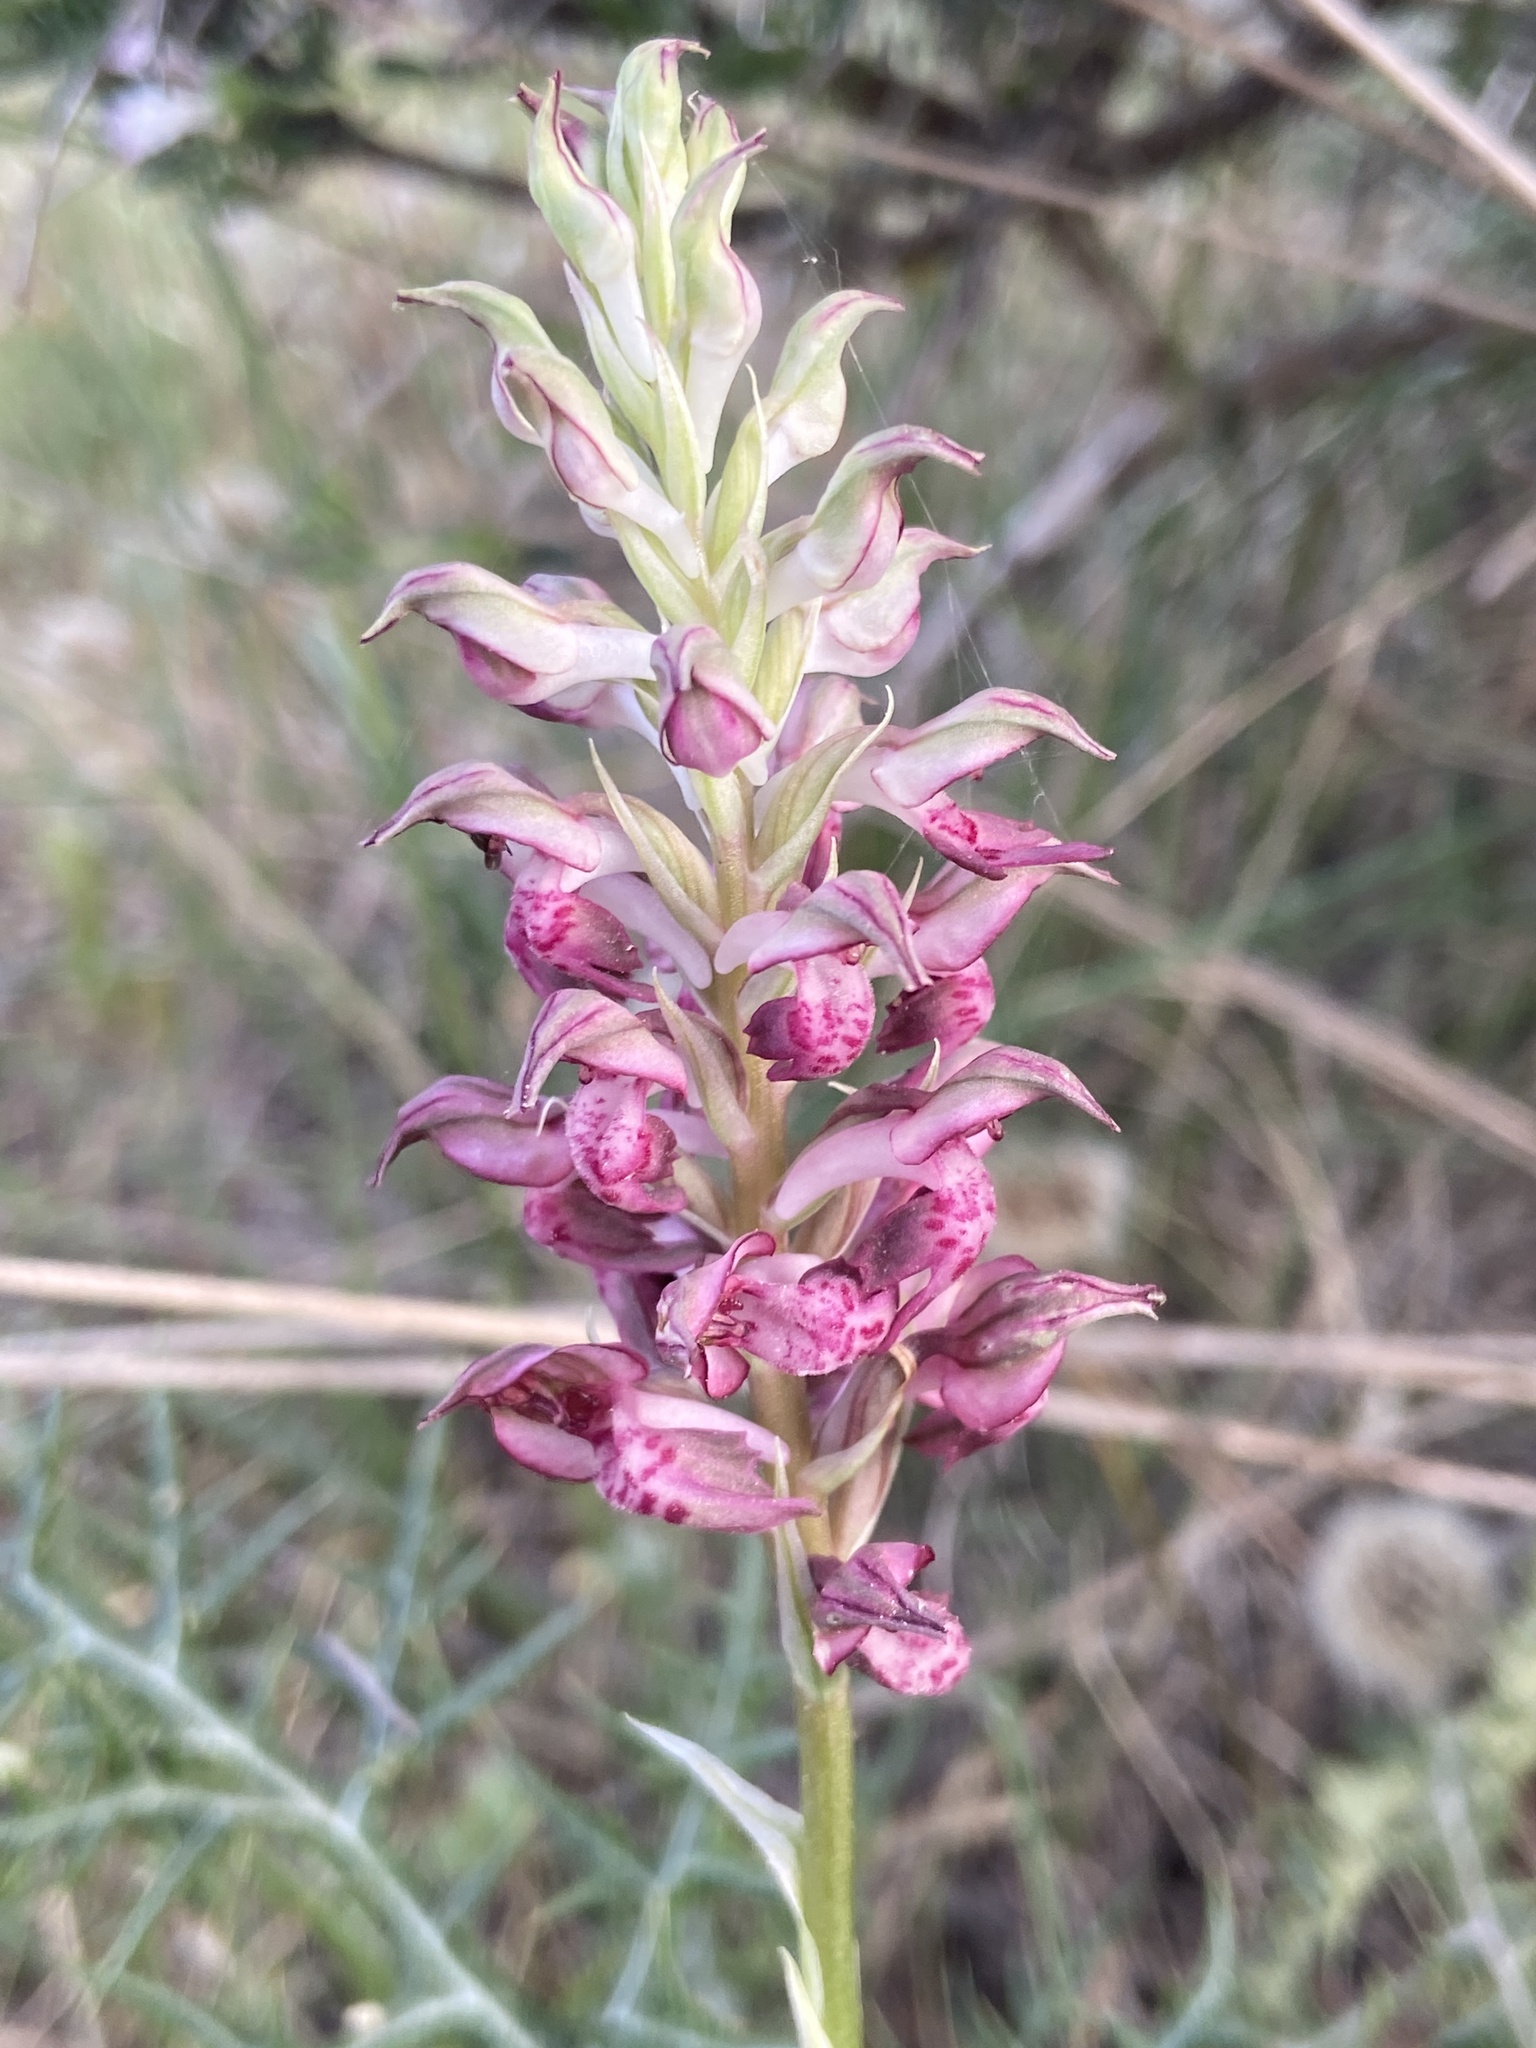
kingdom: Plantae
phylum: Tracheophyta
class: Liliopsida
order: Asparagales
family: Orchidaceae
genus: Anacamptis
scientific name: Anacamptis coriophora
